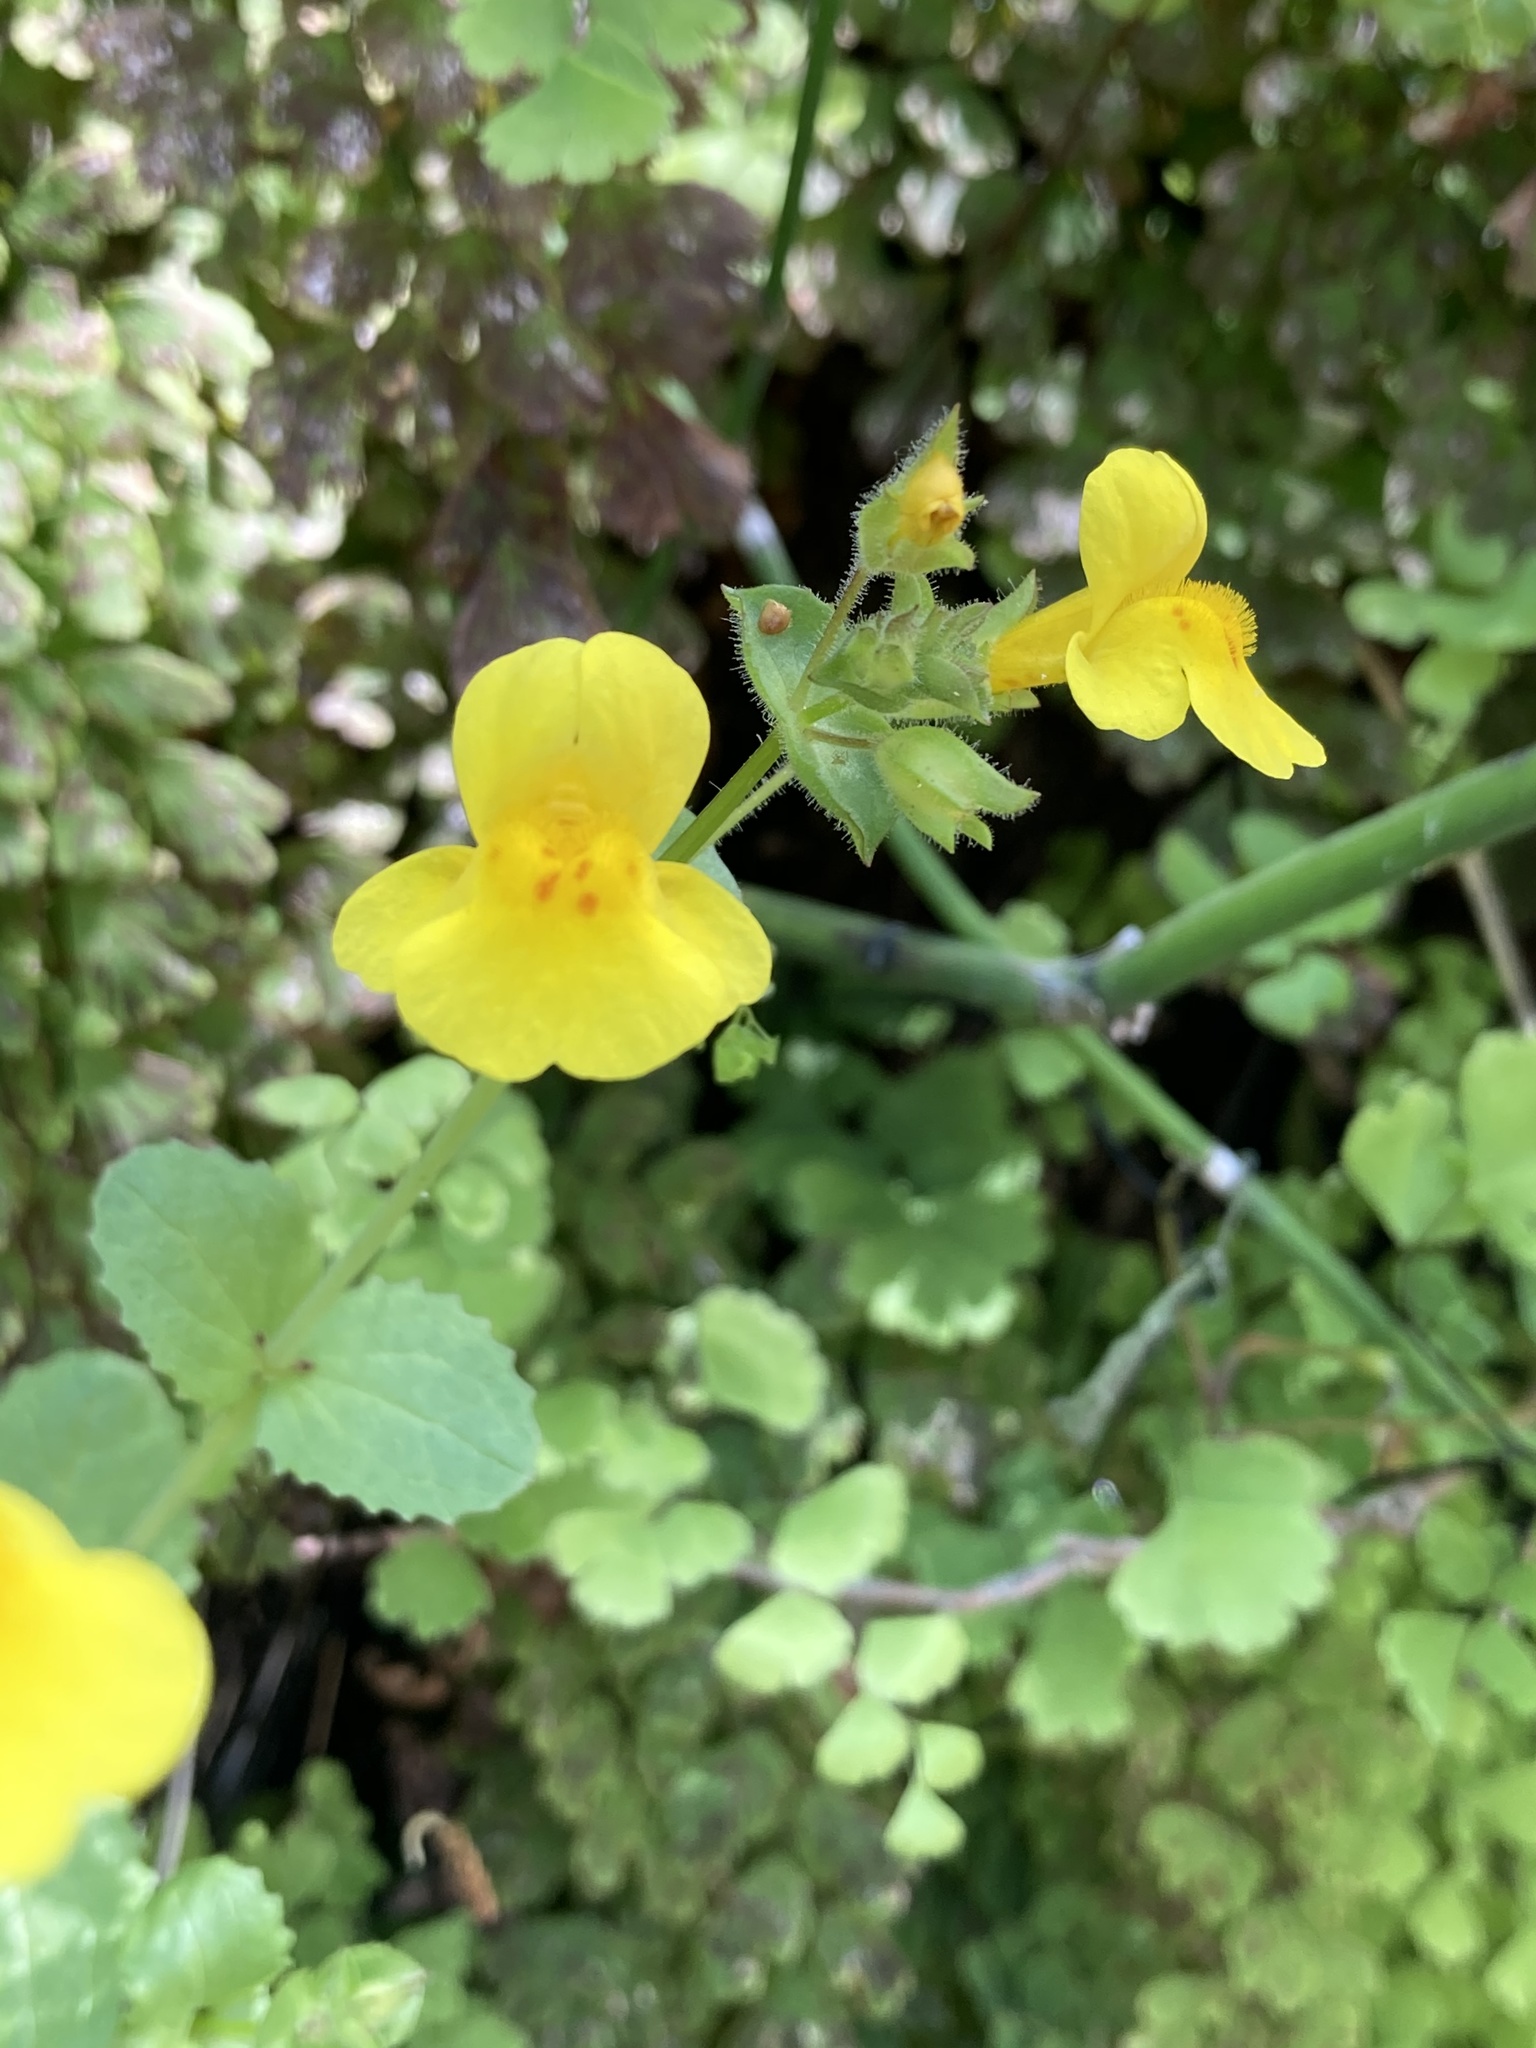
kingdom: Plantae
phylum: Tracheophyta
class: Magnoliopsida
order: Lamiales
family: Phrymaceae
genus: Erythranthe
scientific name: Erythranthe guttata
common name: Monkeyflower
